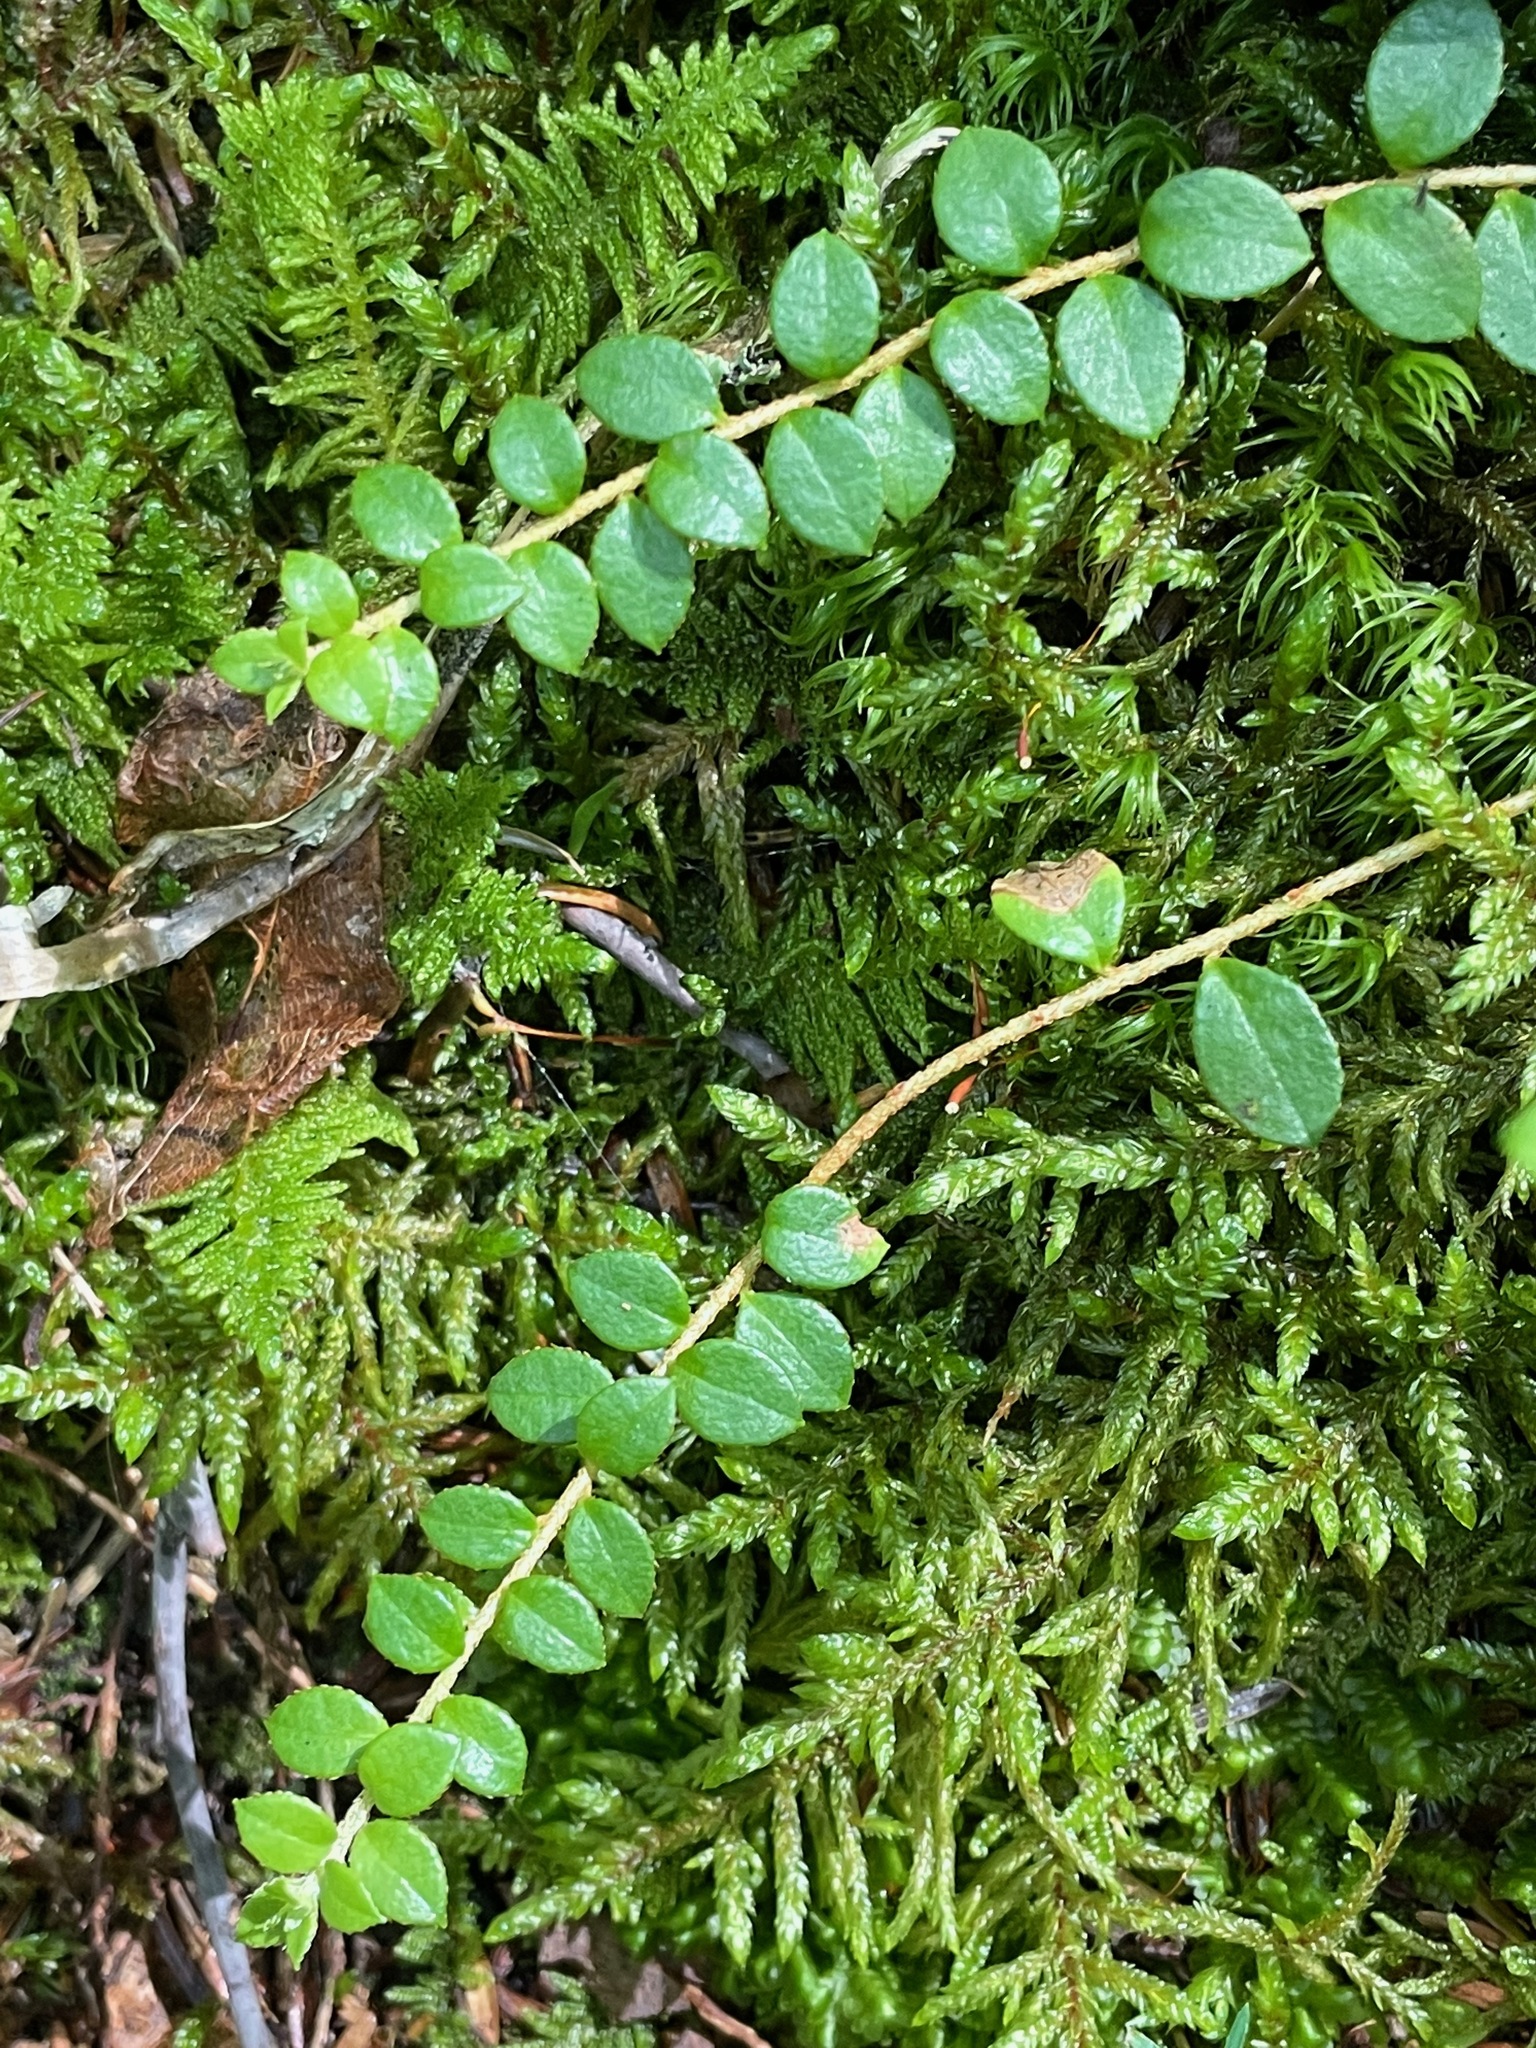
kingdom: Plantae
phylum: Tracheophyta
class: Magnoliopsida
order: Ericales
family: Ericaceae
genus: Gaultheria
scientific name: Gaultheria hispidula
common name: Cancer wintergreen
